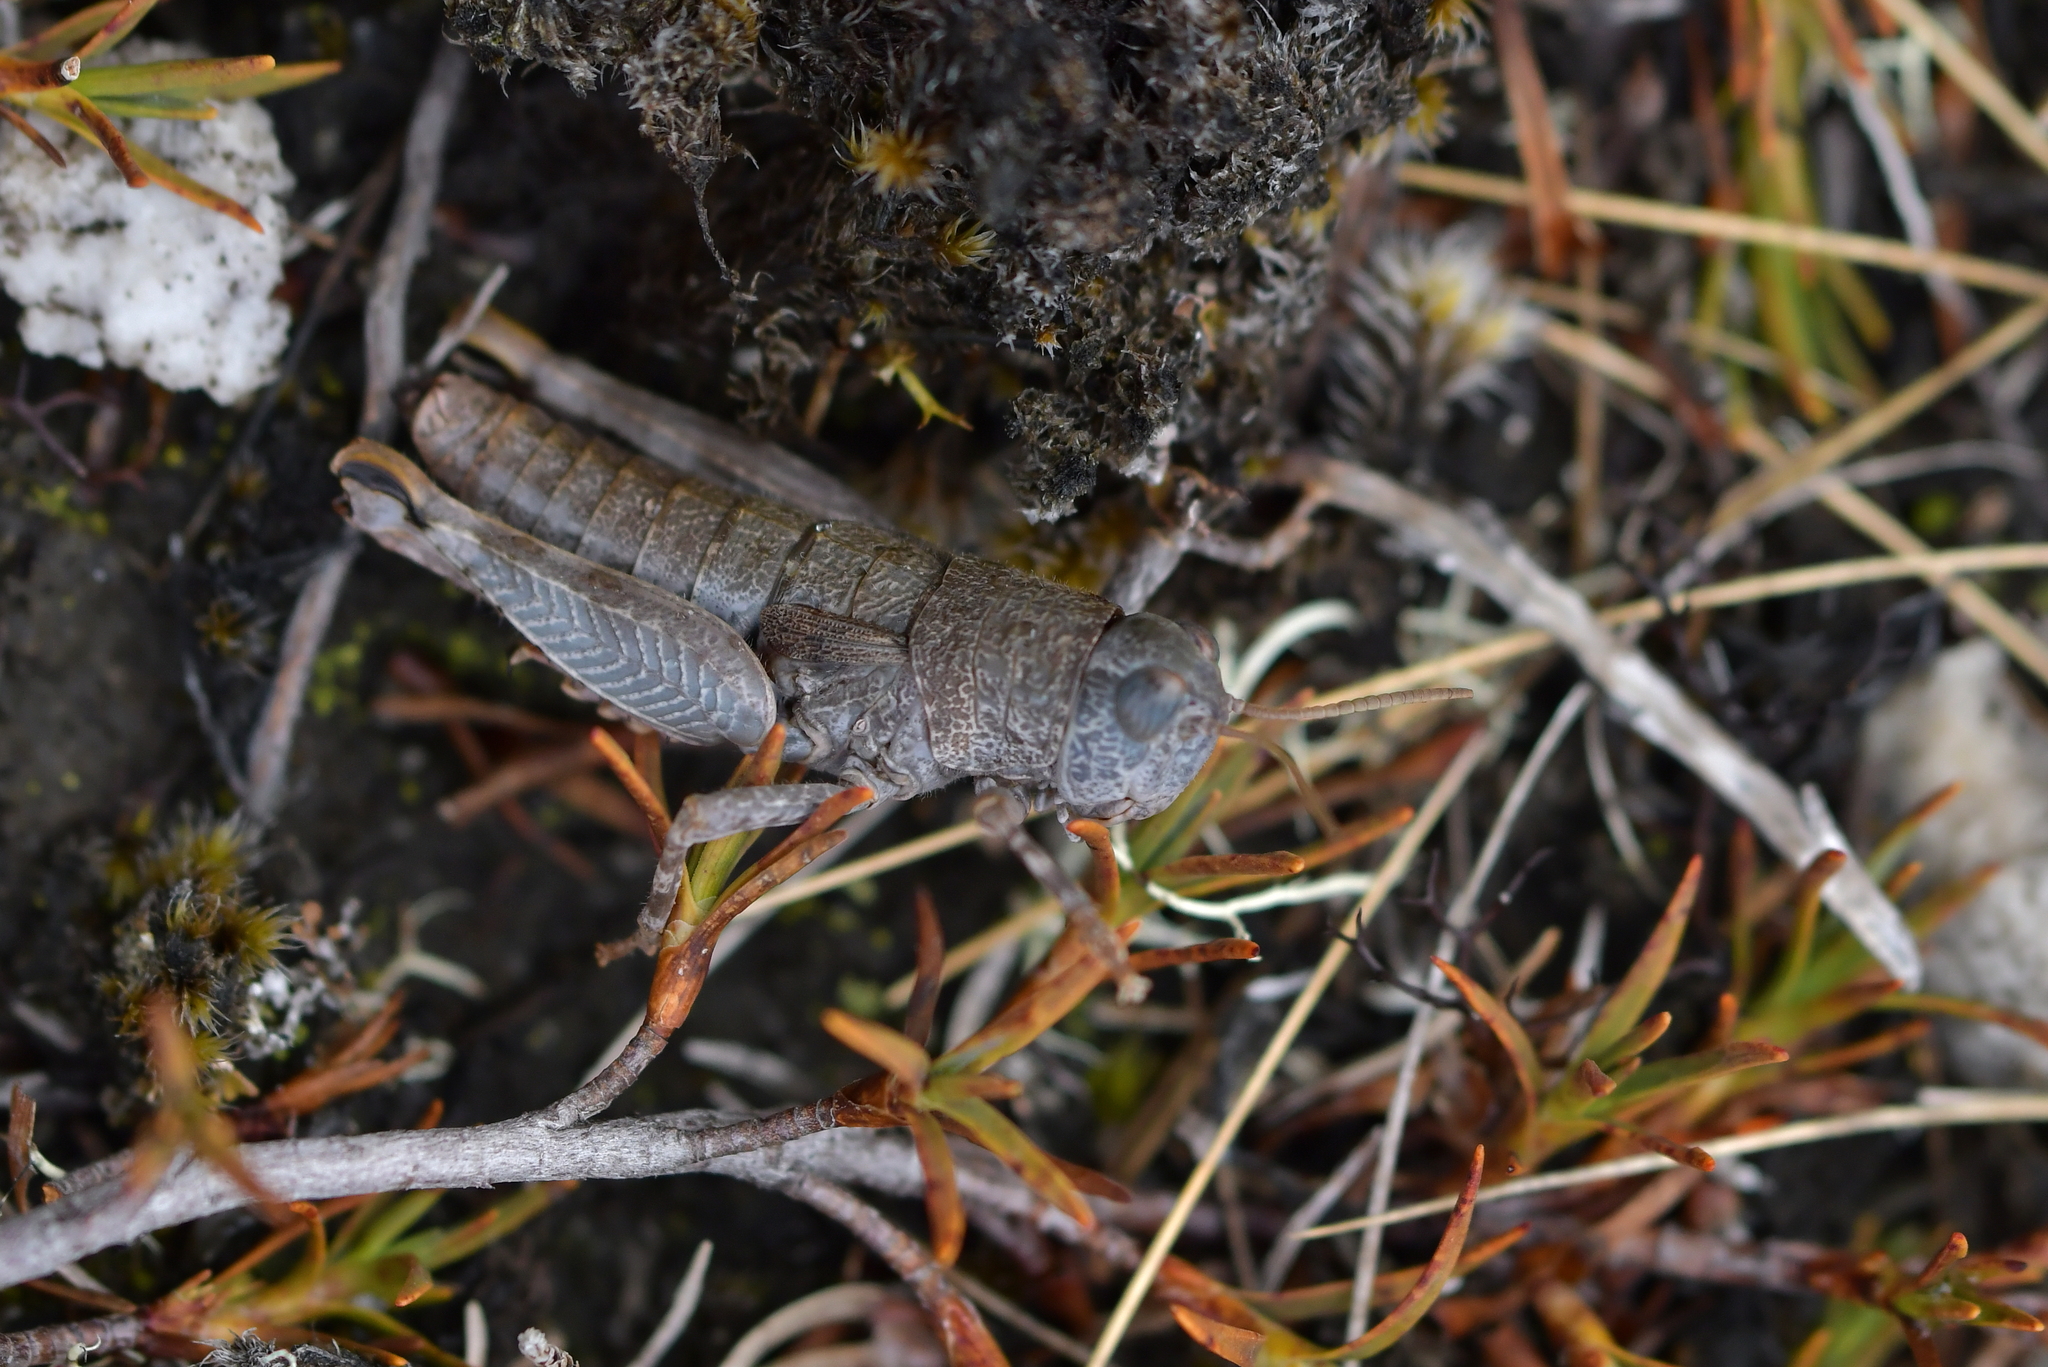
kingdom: Animalia
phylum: Arthropoda
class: Insecta
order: Orthoptera
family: Acrididae
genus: Sigaus
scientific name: Sigaus
